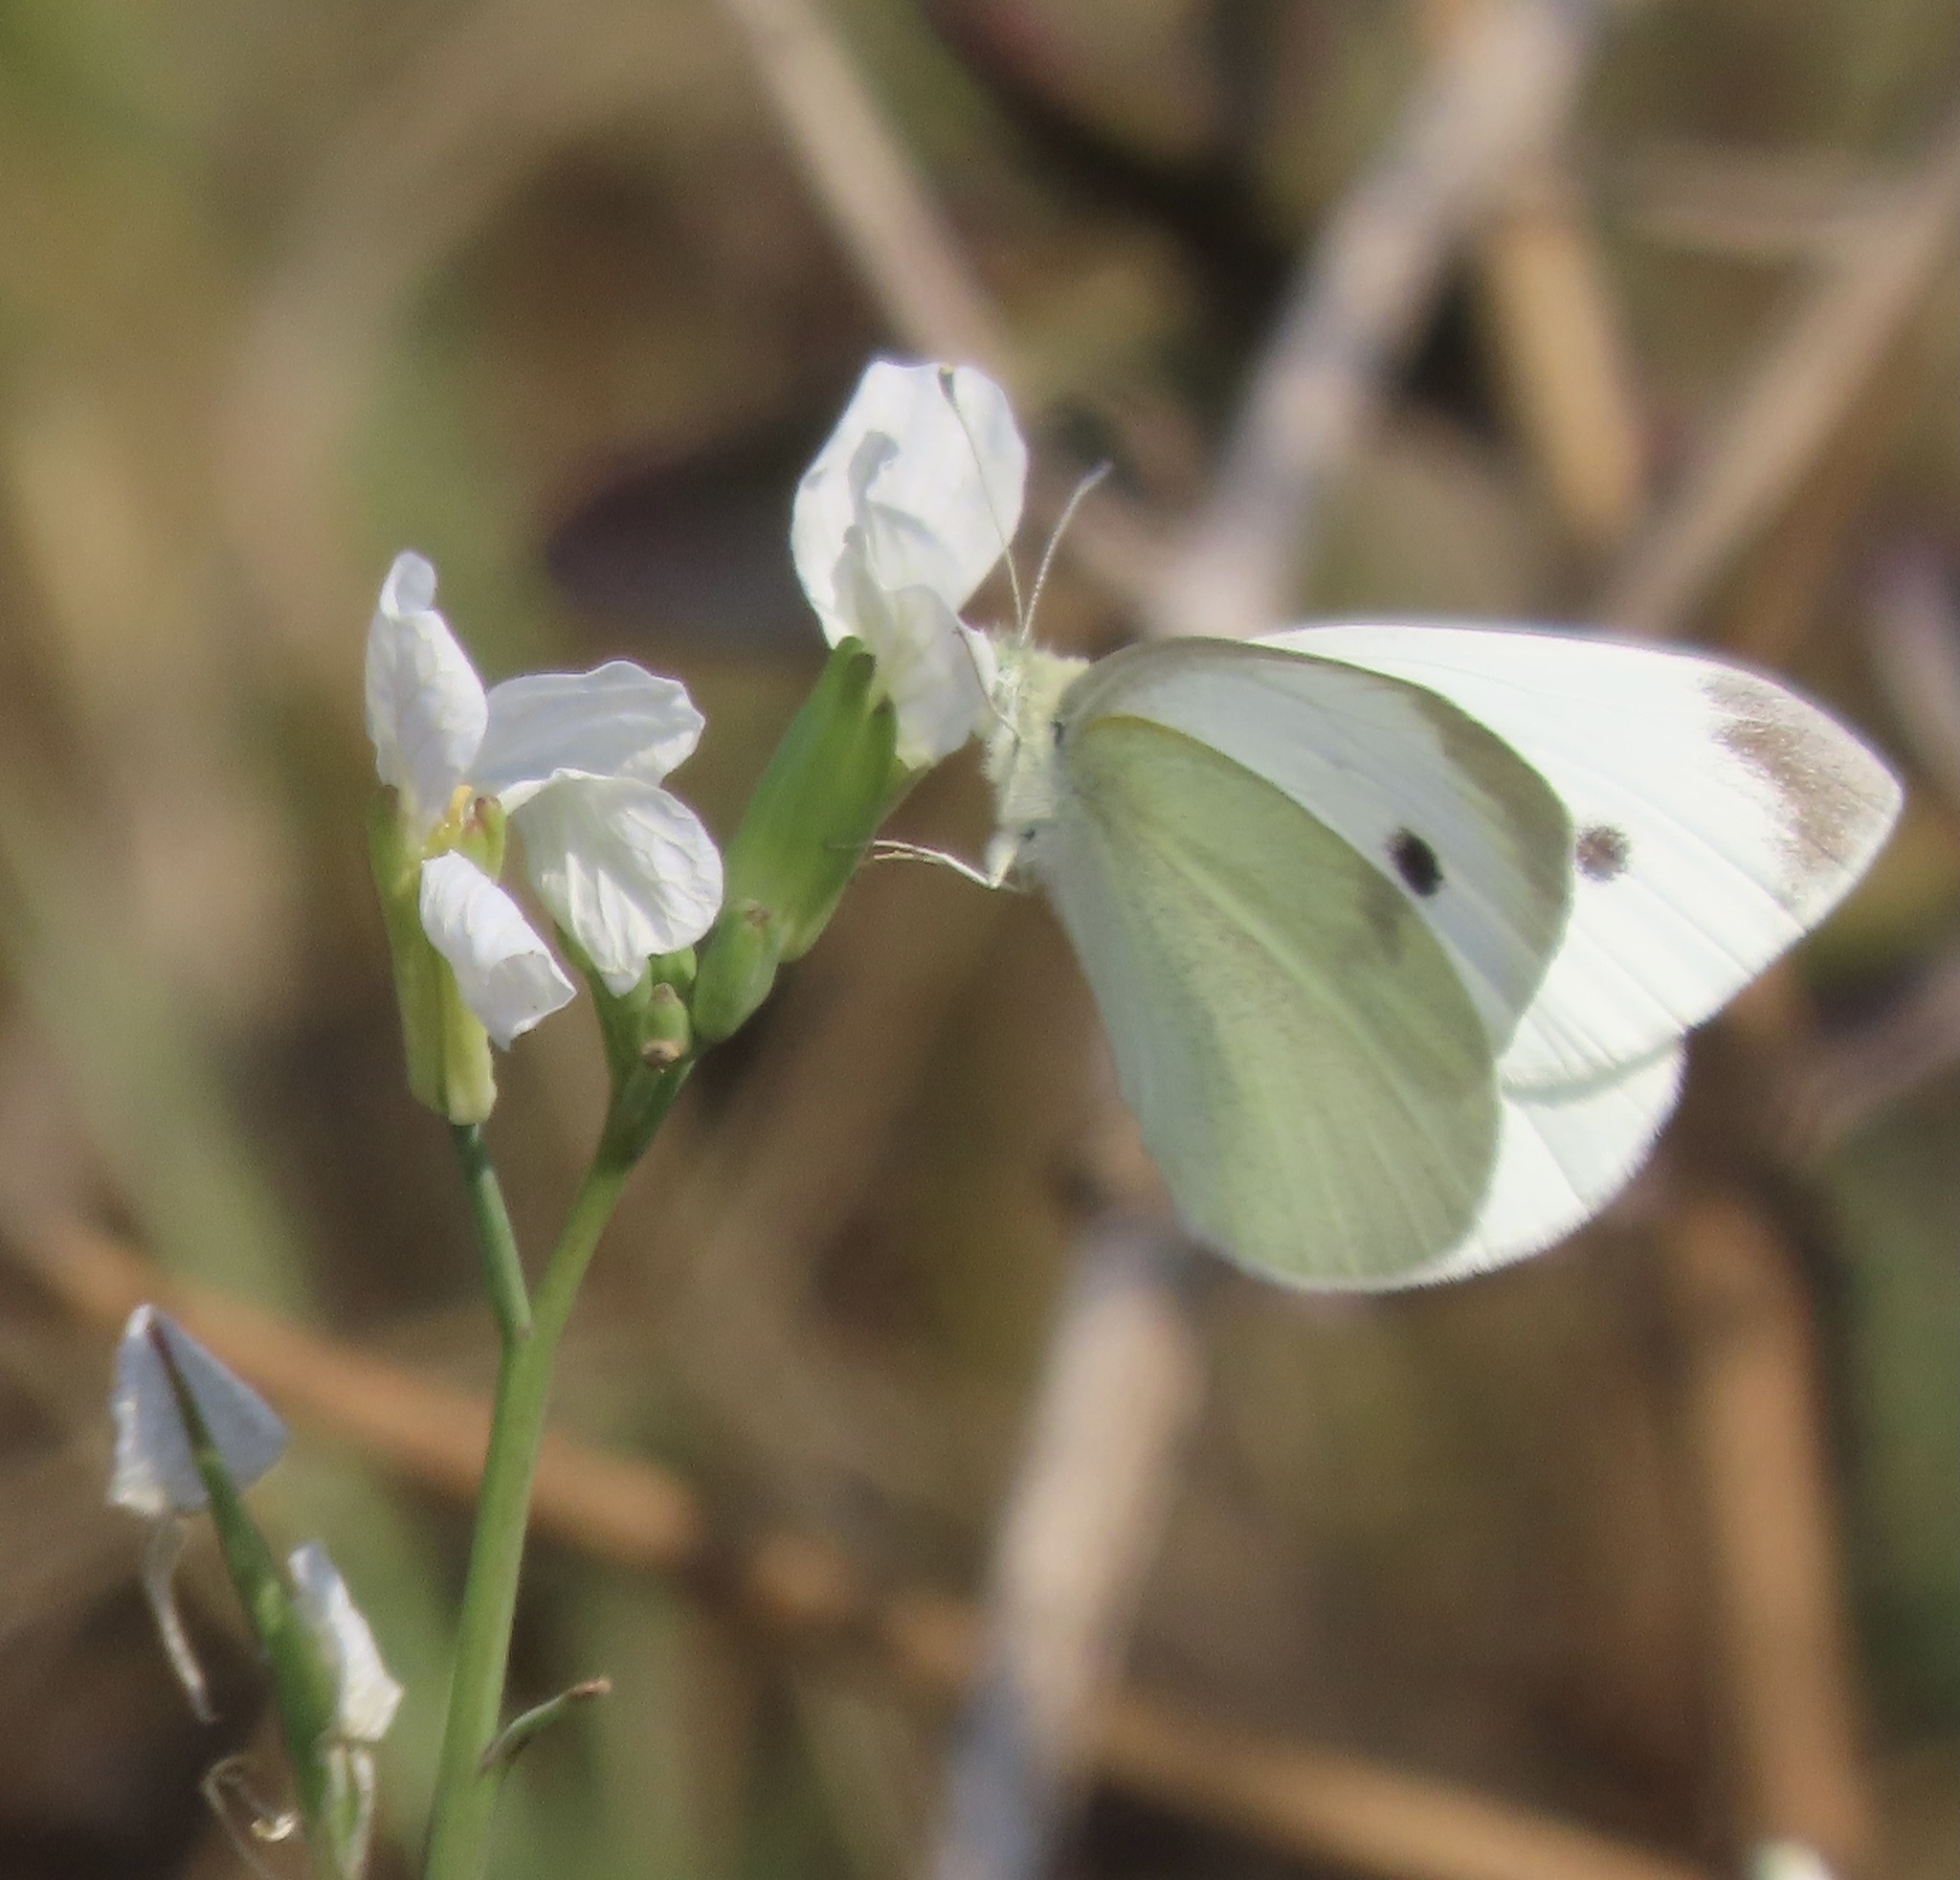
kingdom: Animalia
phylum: Arthropoda
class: Insecta
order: Lepidoptera
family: Pieridae
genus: Pieris
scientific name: Pieris rapae
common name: Small white
